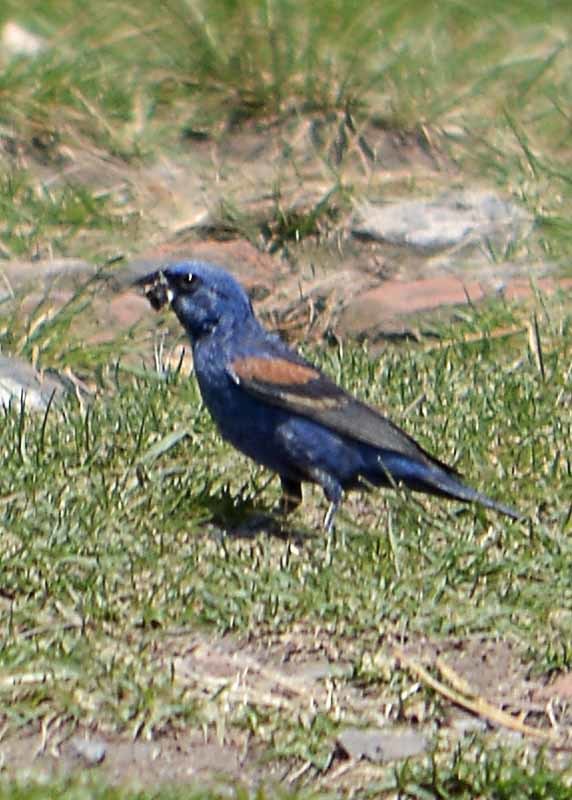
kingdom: Animalia
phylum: Chordata
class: Aves
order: Passeriformes
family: Cardinalidae
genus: Passerina
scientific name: Passerina caerulea
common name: Blue grosbeak
